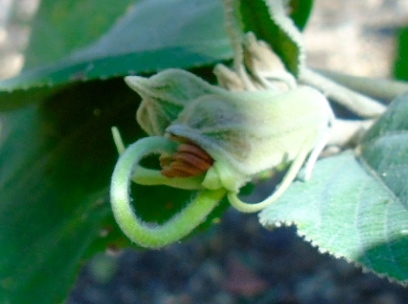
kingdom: Plantae
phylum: Tracheophyta
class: Magnoliopsida
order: Malvales
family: Malvaceae
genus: Helicteres
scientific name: Helicteres baruensis
